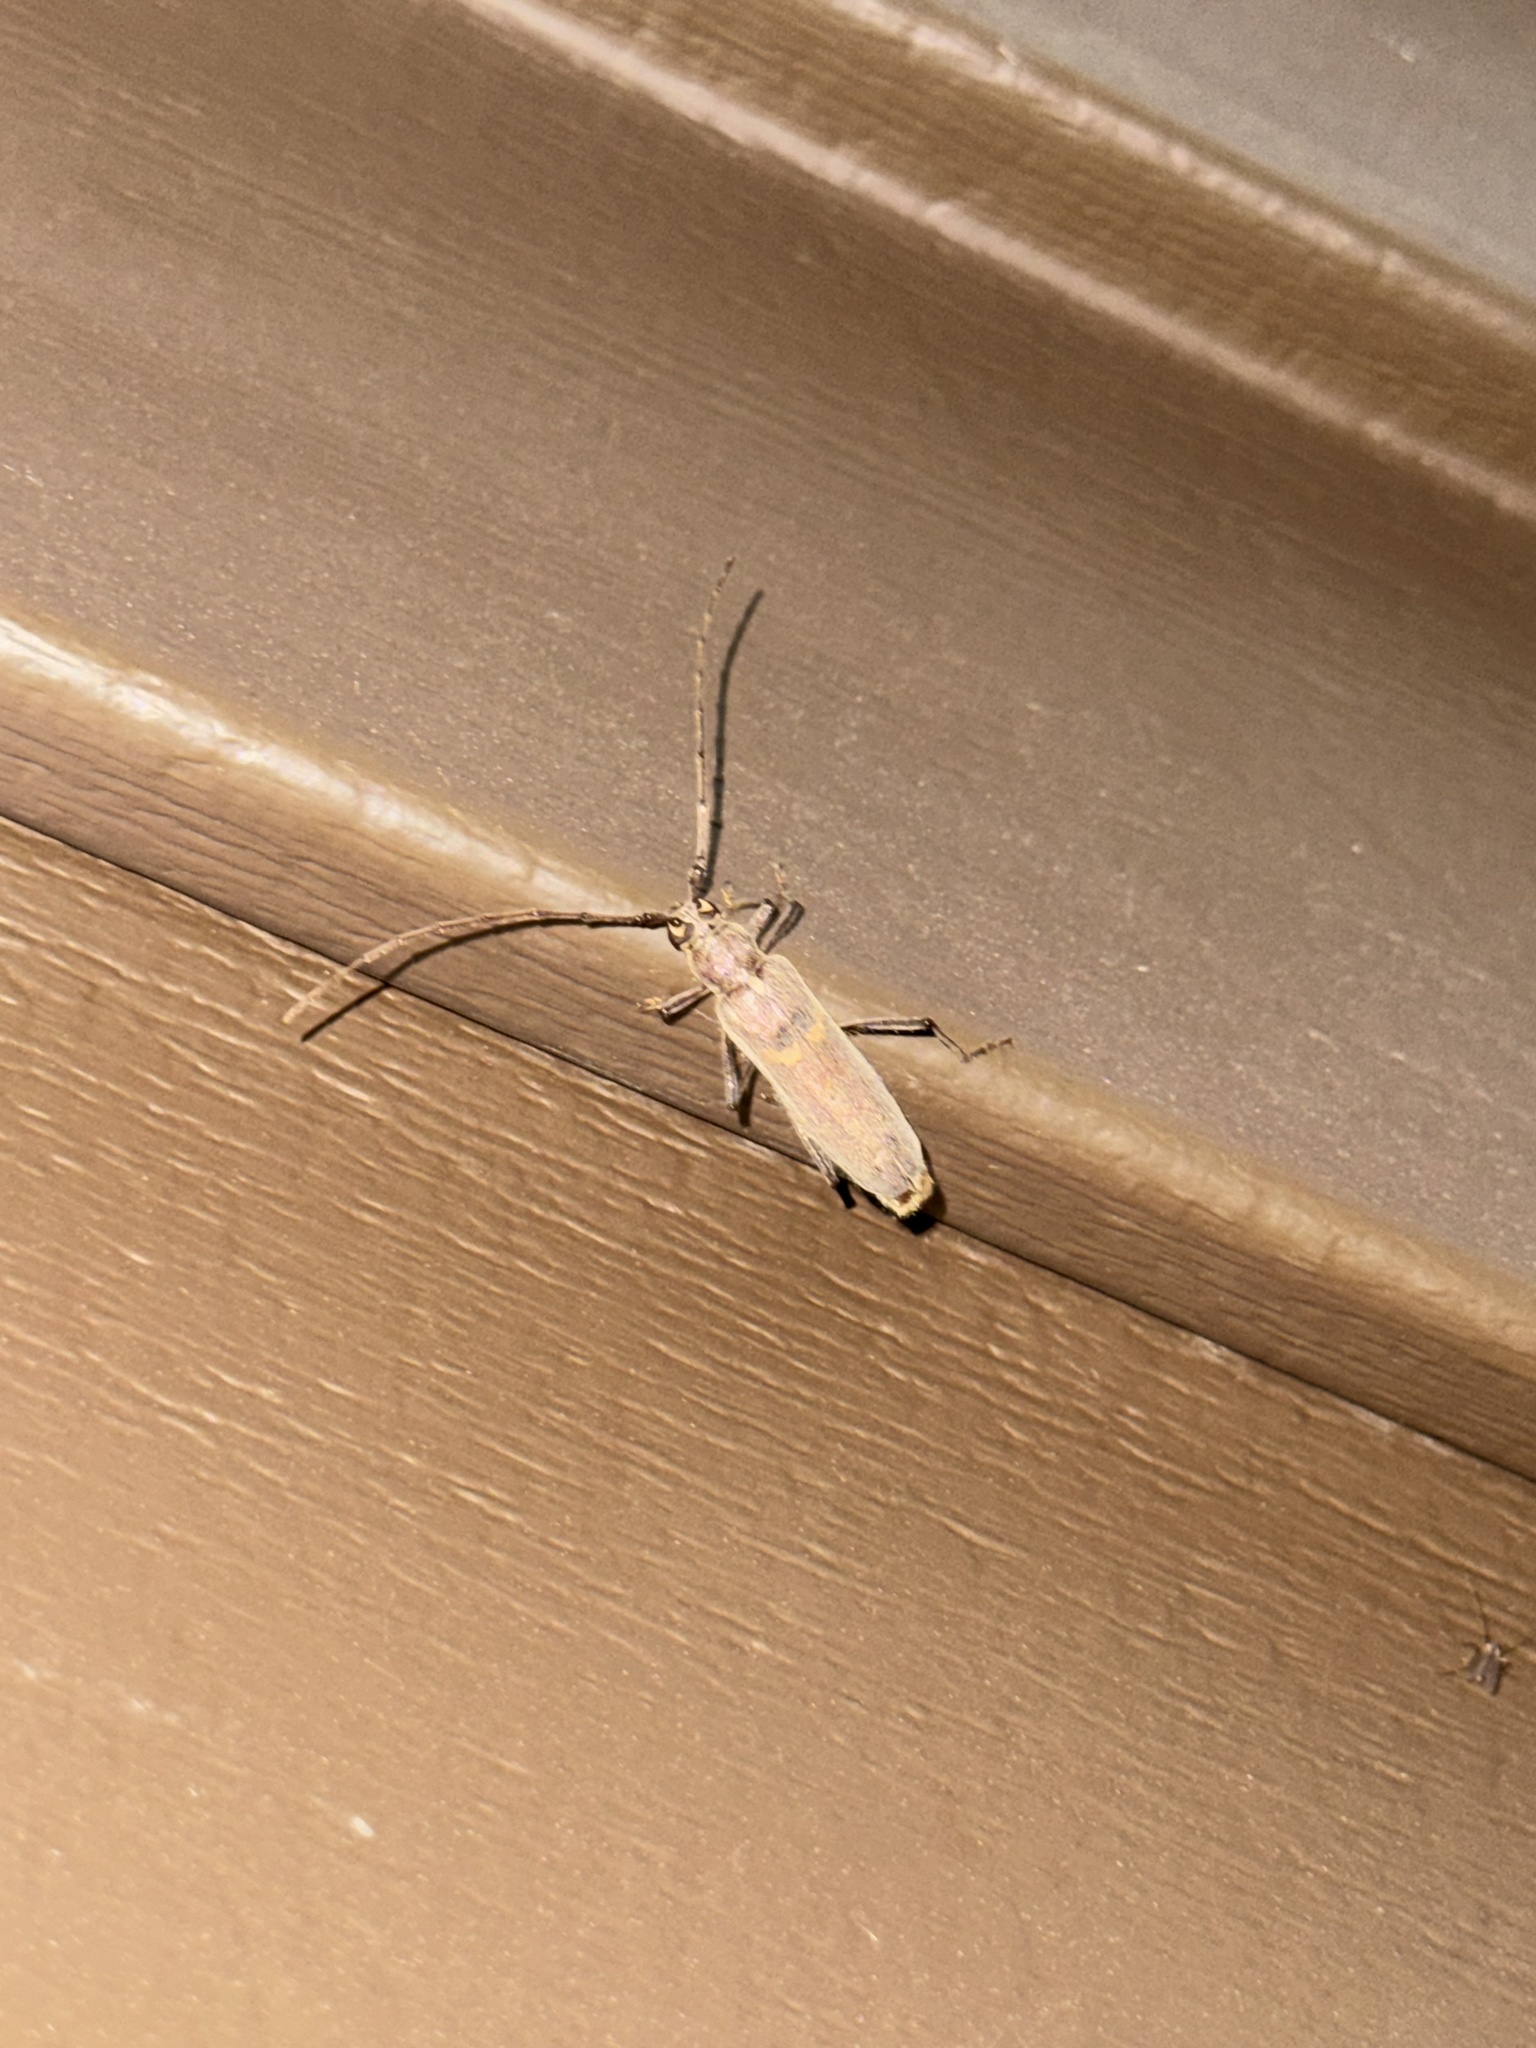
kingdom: Animalia
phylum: Arthropoda
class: Insecta
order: Coleoptera
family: Cerambycidae
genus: Knulliana
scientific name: Knulliana cincta
